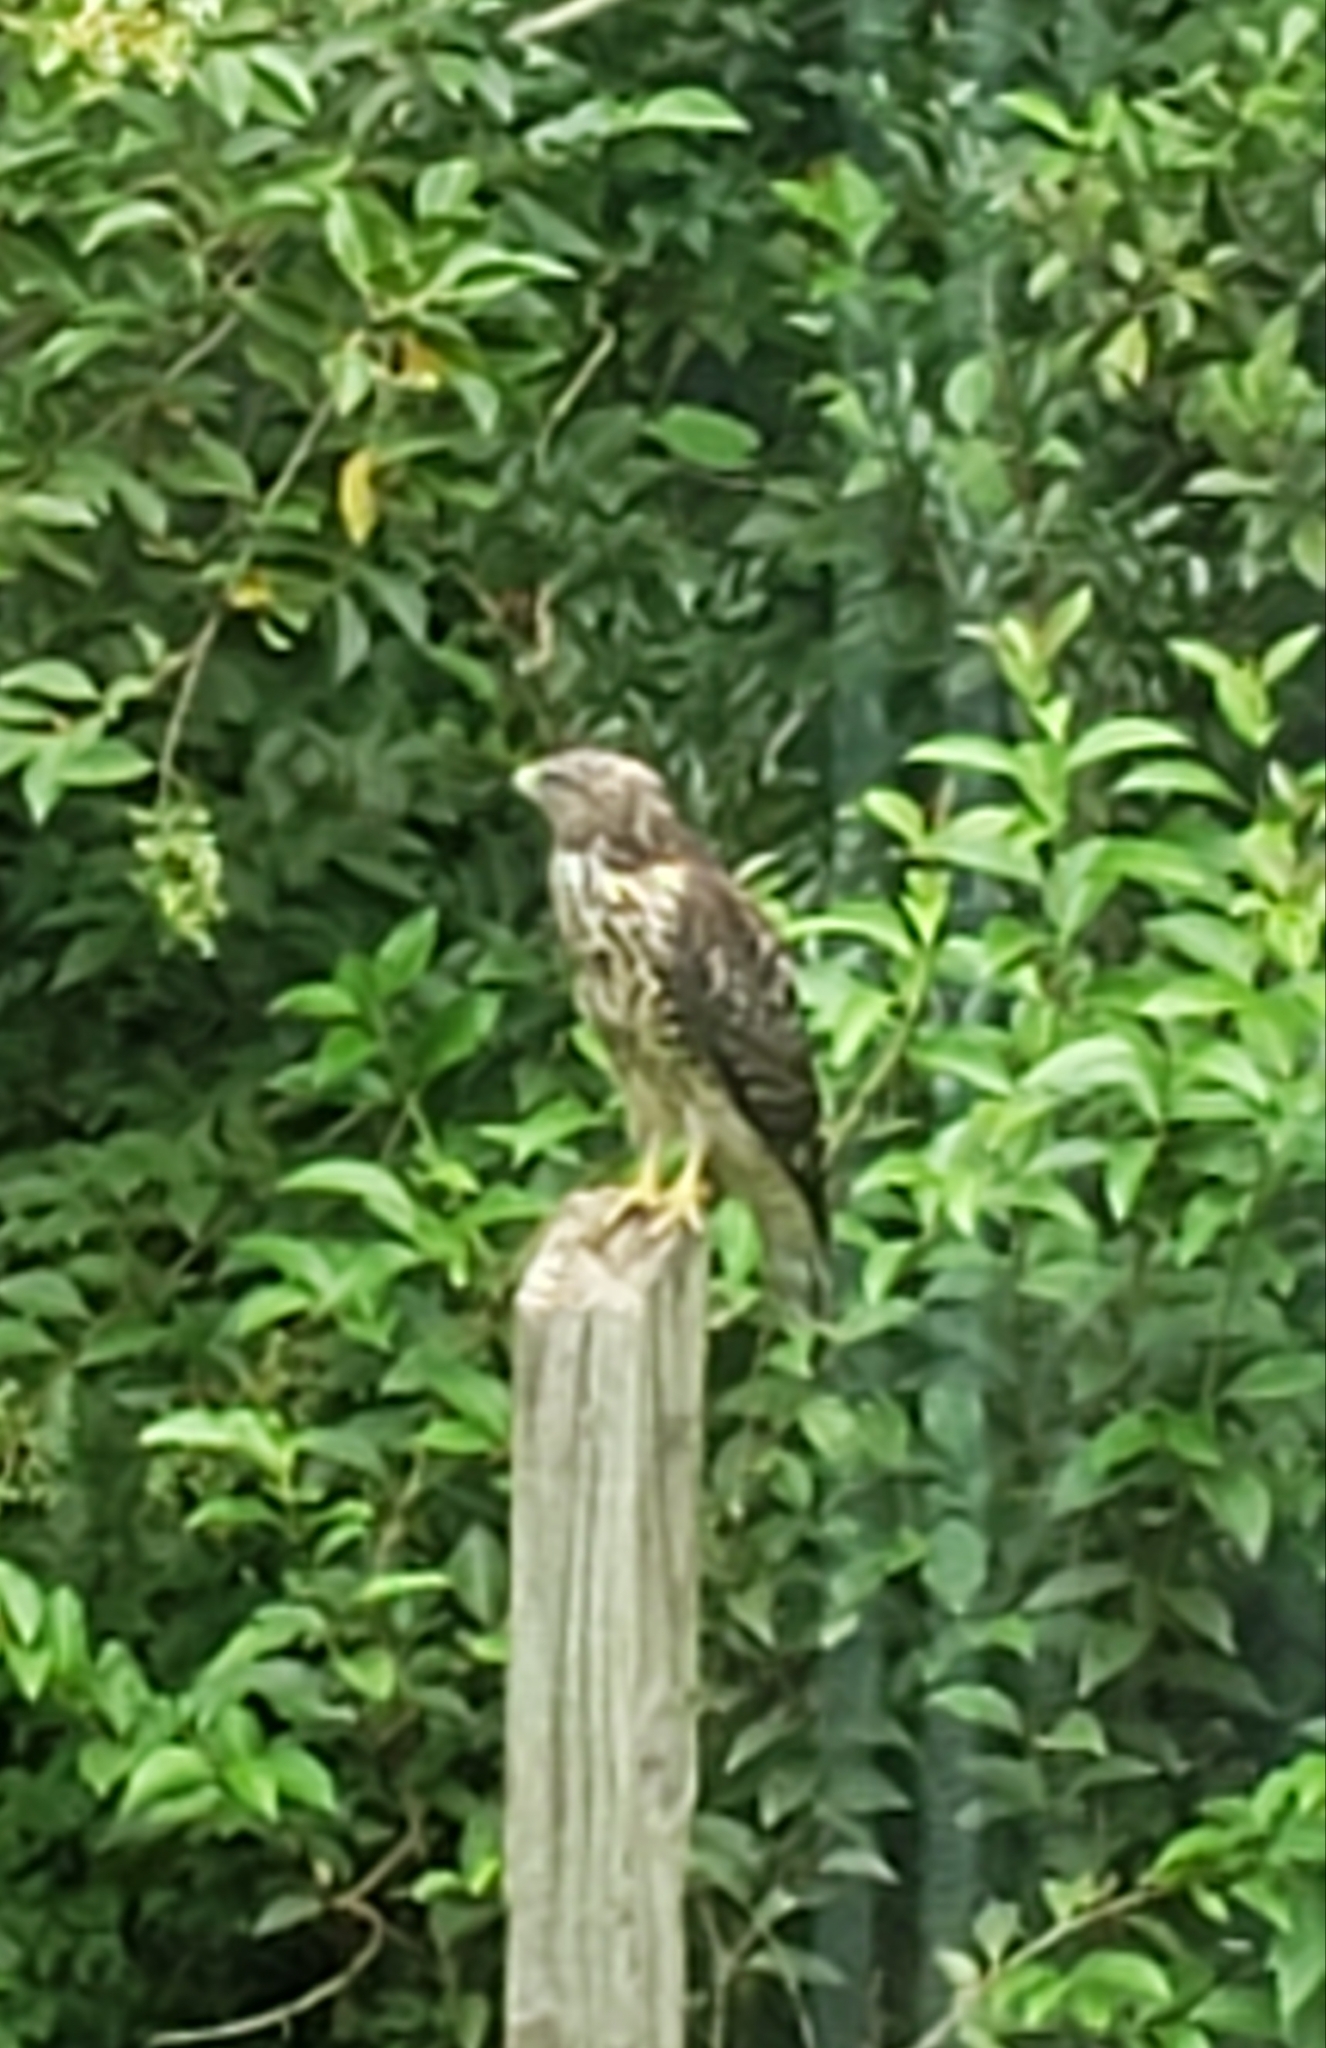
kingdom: Animalia
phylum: Chordata
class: Aves
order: Accipitriformes
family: Accipitridae
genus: Buteo
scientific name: Buteo lineatus
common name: Red-shouldered hawk
